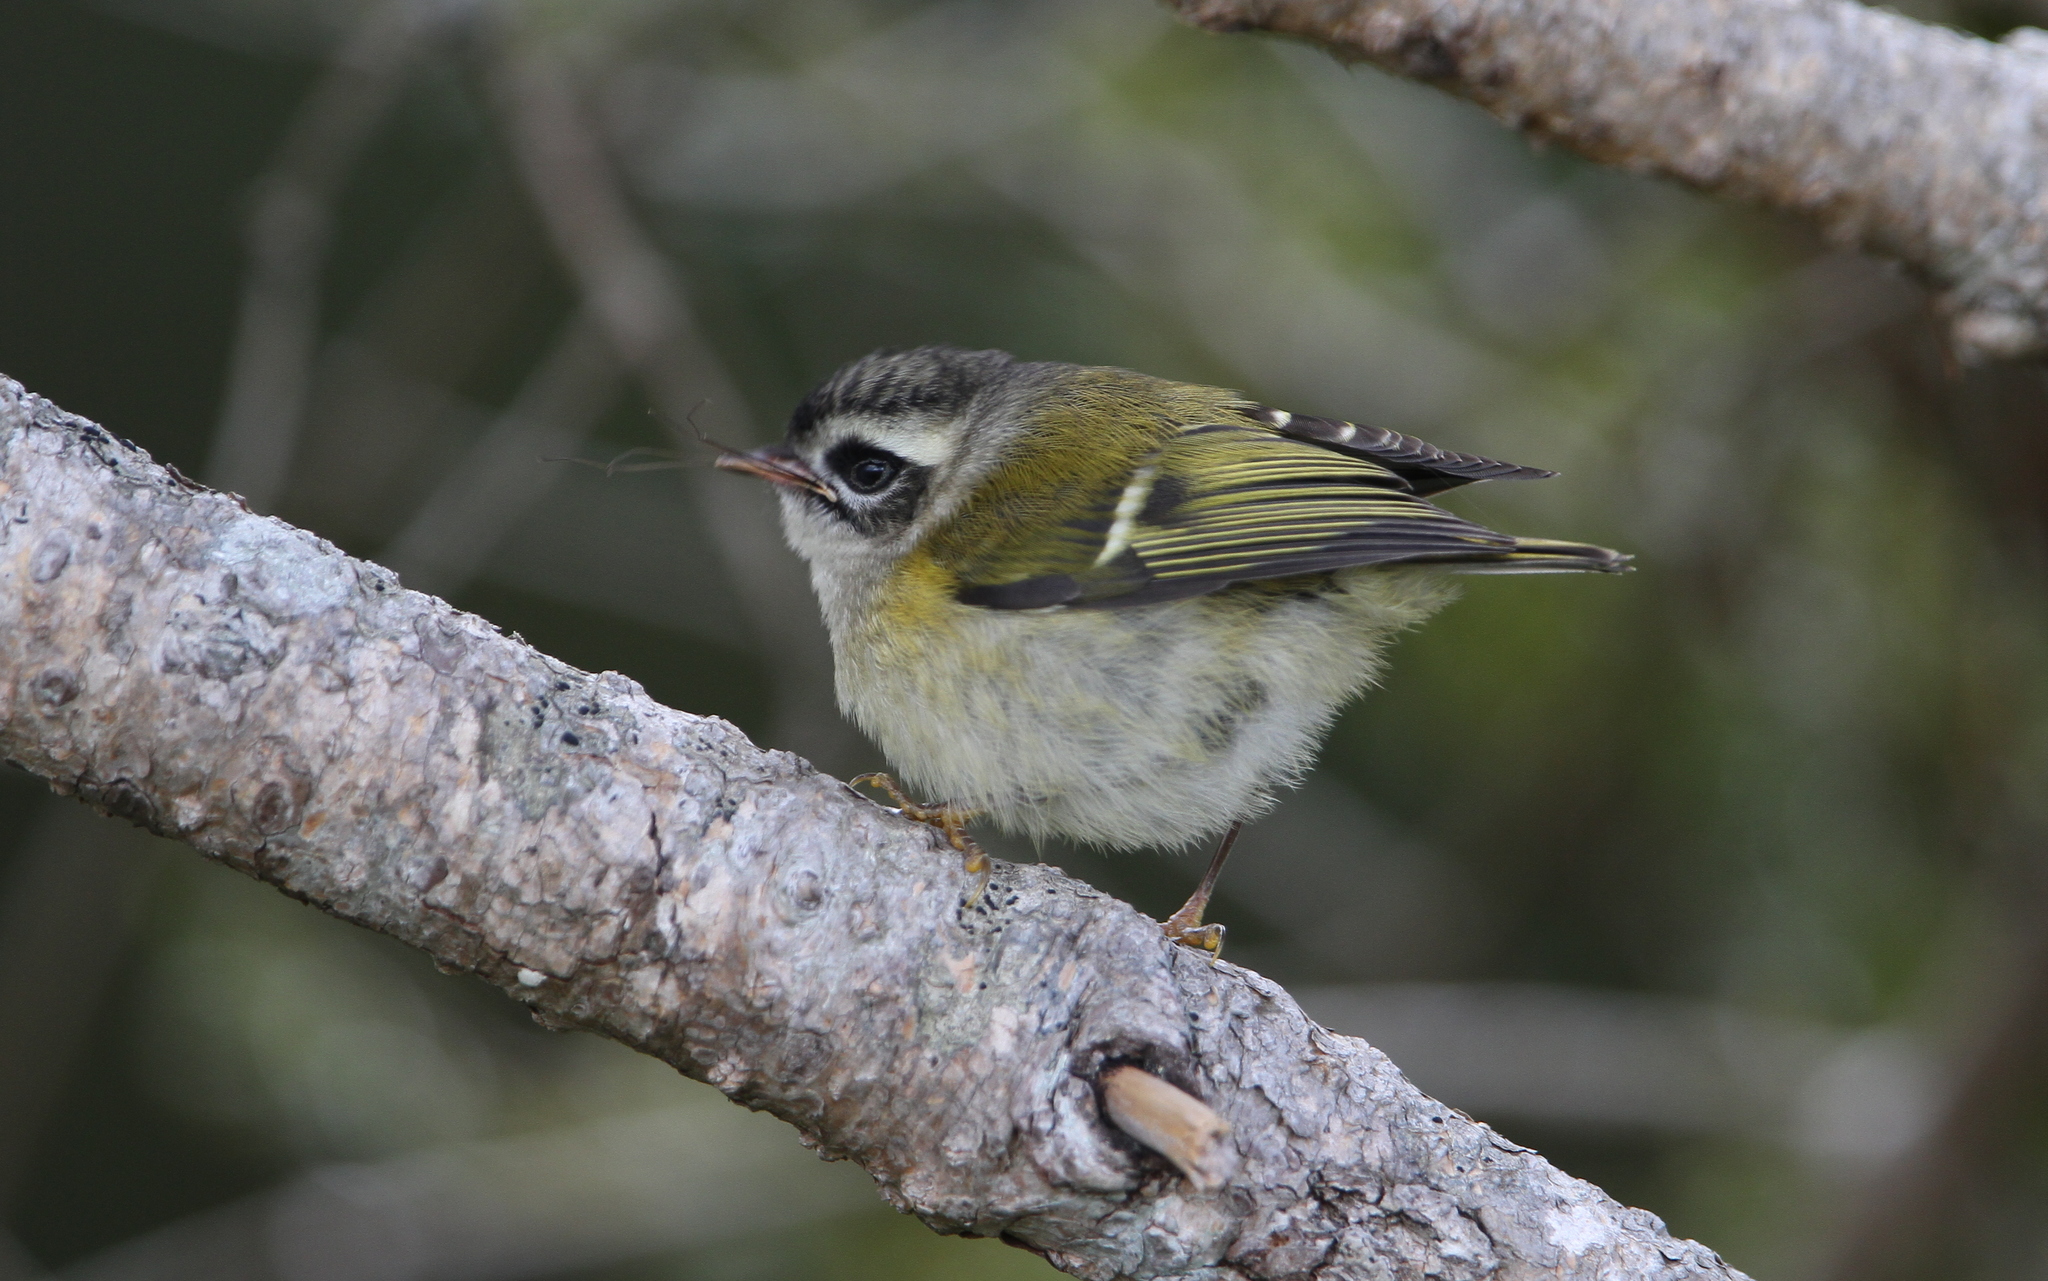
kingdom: Animalia
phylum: Chordata
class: Aves
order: Passeriformes
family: Regulidae
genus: Regulus
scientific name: Regulus goodfellowi
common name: Flamecrest
